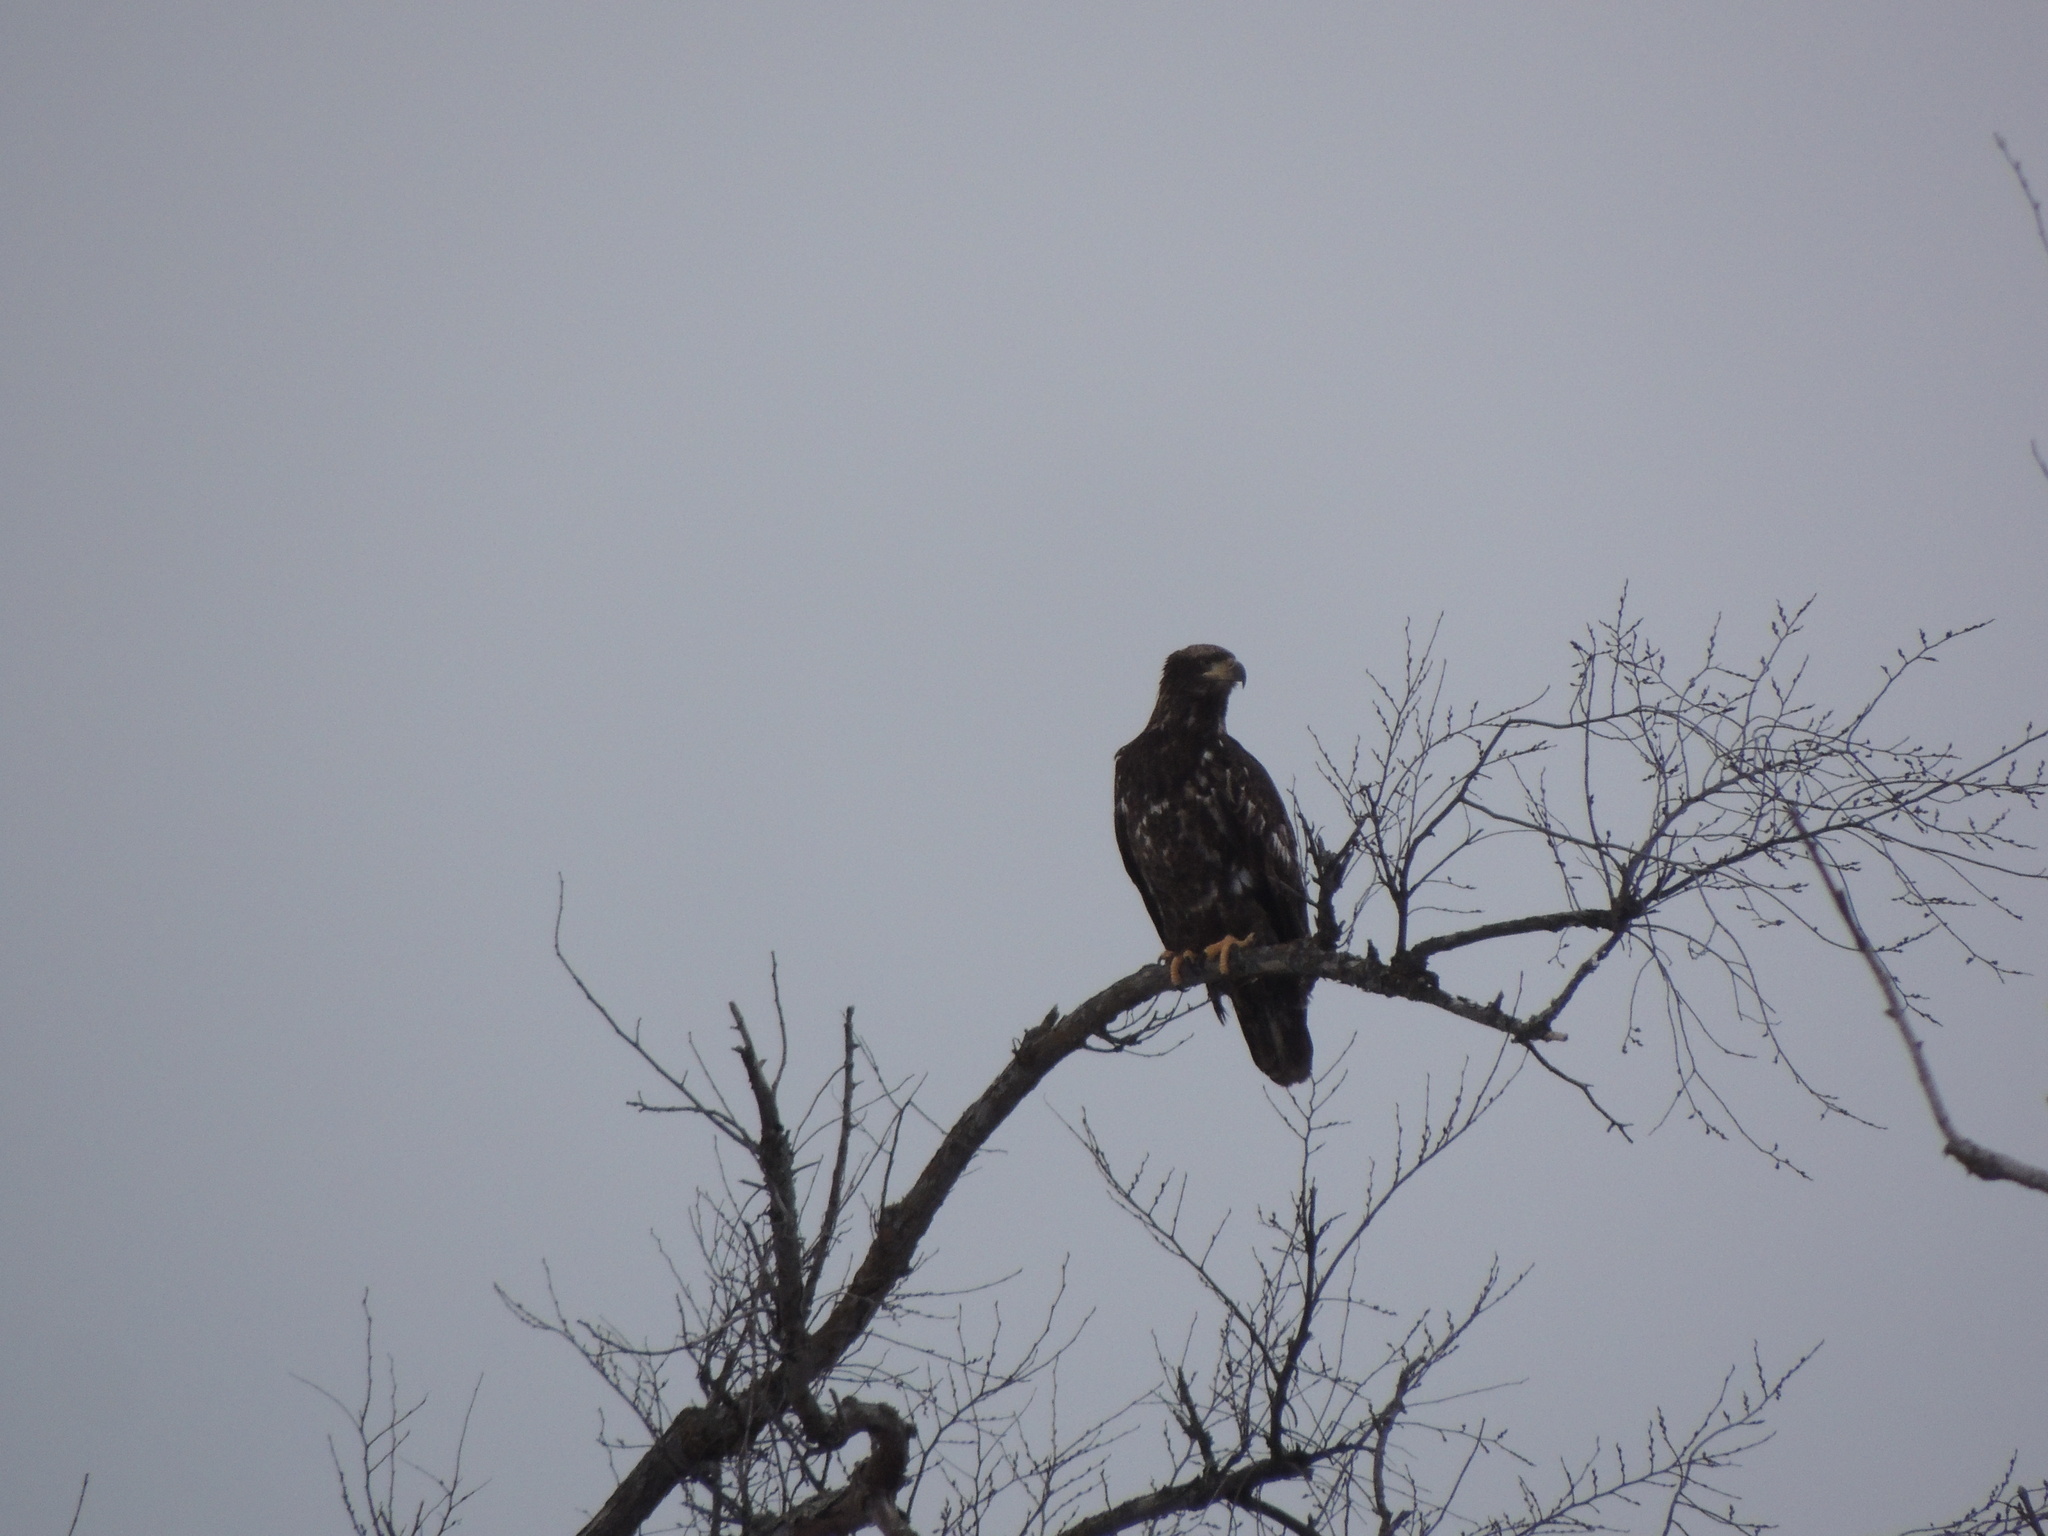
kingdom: Animalia
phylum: Chordata
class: Aves
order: Accipitriformes
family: Accipitridae
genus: Haliaeetus
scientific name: Haliaeetus leucocephalus
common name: Bald eagle
